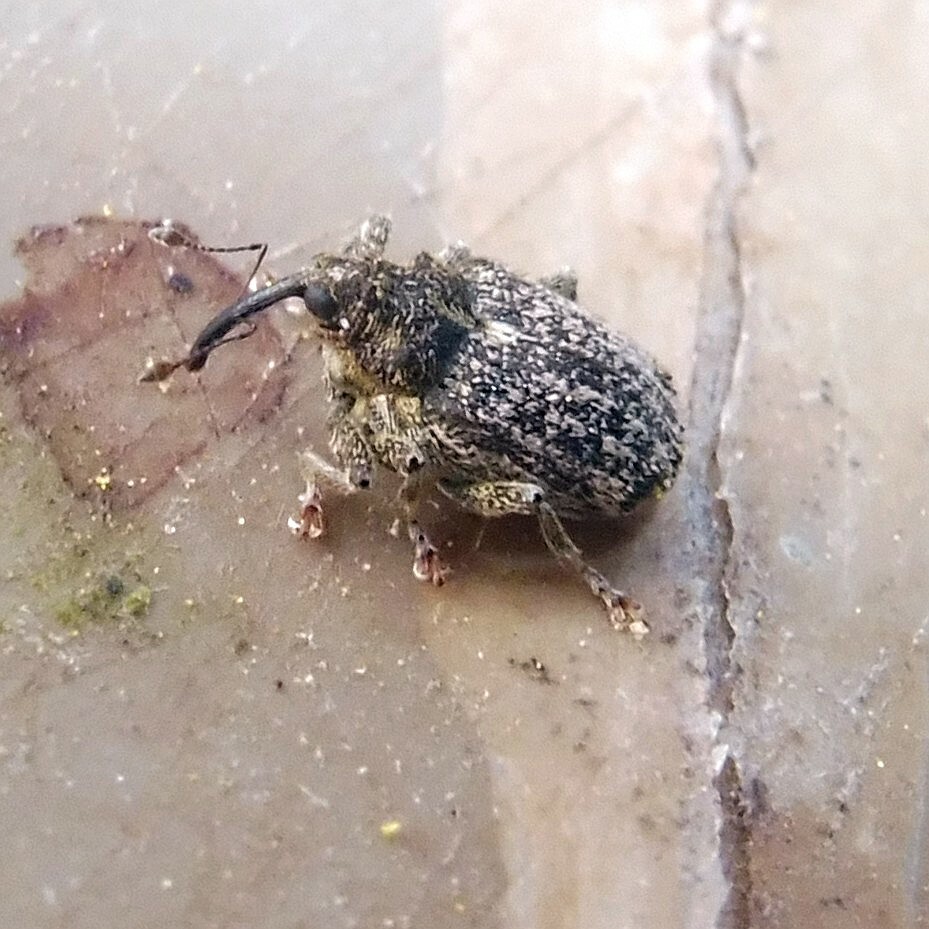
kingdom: Animalia
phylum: Arthropoda
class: Insecta
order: Coleoptera
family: Curculionidae
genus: Ceutorhynchus
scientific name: Ceutorhynchus pallidactylus
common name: Cabbage stem weavil
